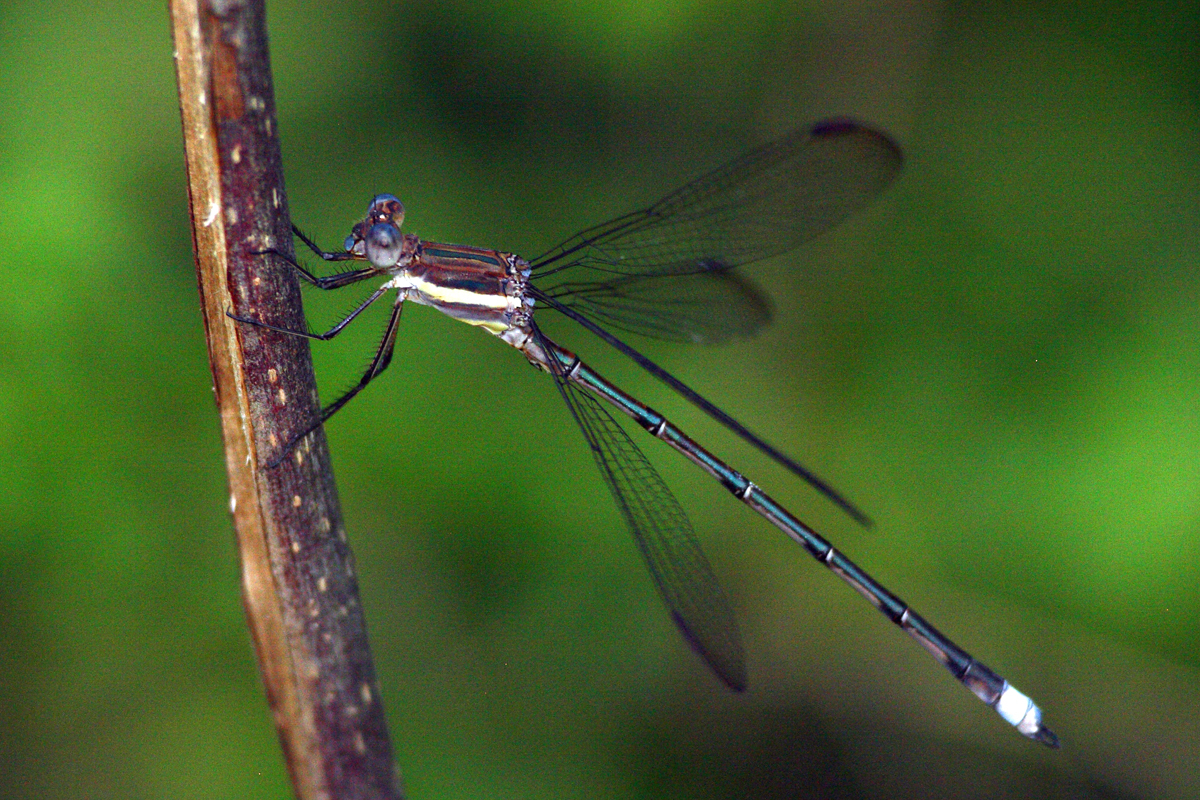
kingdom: Animalia
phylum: Arthropoda
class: Insecta
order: Odonata
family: Lestidae
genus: Archilestes
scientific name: Archilestes grandis
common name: Great spreadwing
